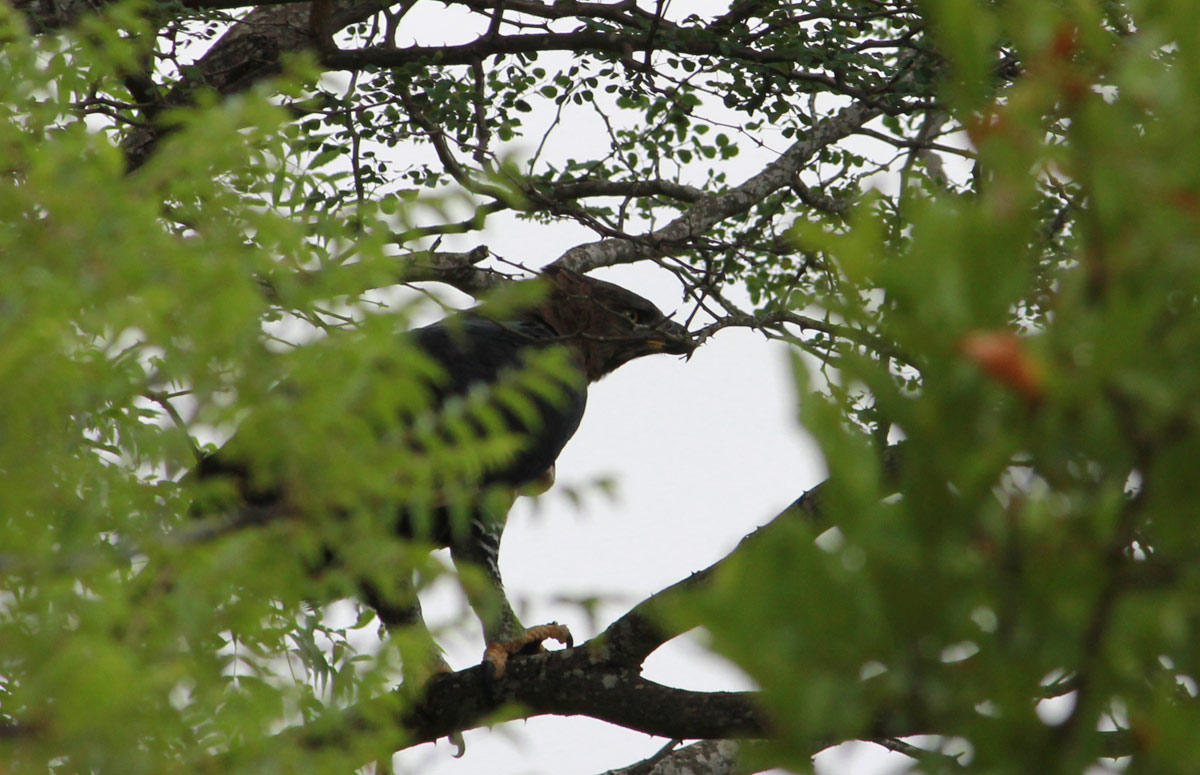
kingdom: Animalia
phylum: Chordata
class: Aves
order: Accipitriformes
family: Accipitridae
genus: Stephanoaetus
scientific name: Stephanoaetus coronatus
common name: Crowned eagle
